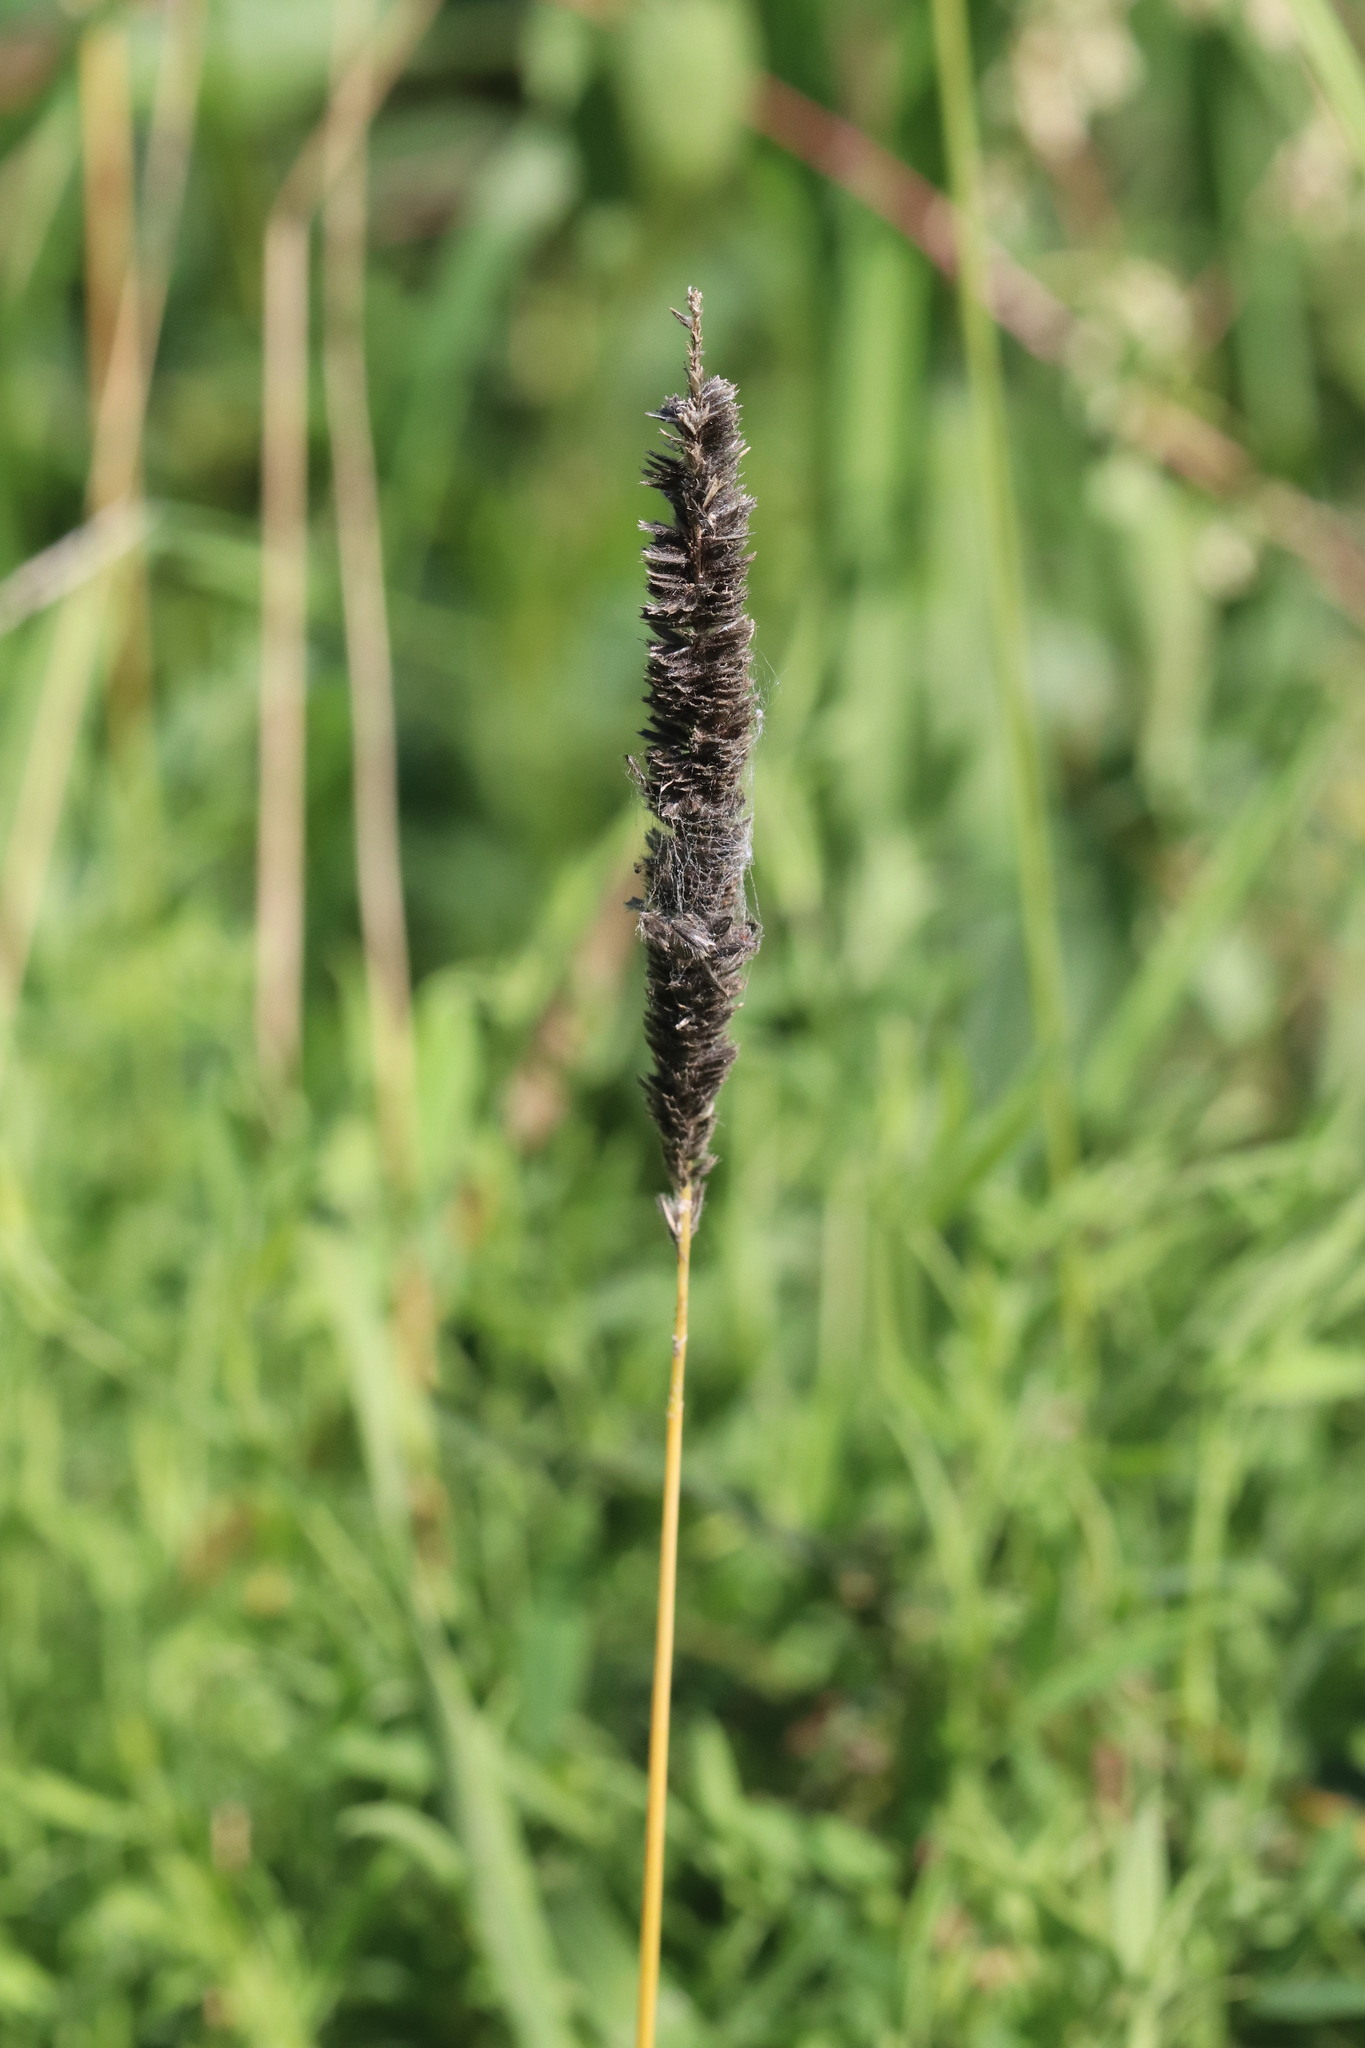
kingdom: Plantae
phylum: Tracheophyta
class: Liliopsida
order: Poales
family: Poaceae
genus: Alopecurus
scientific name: Alopecurus pratensis
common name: Meadow foxtail
